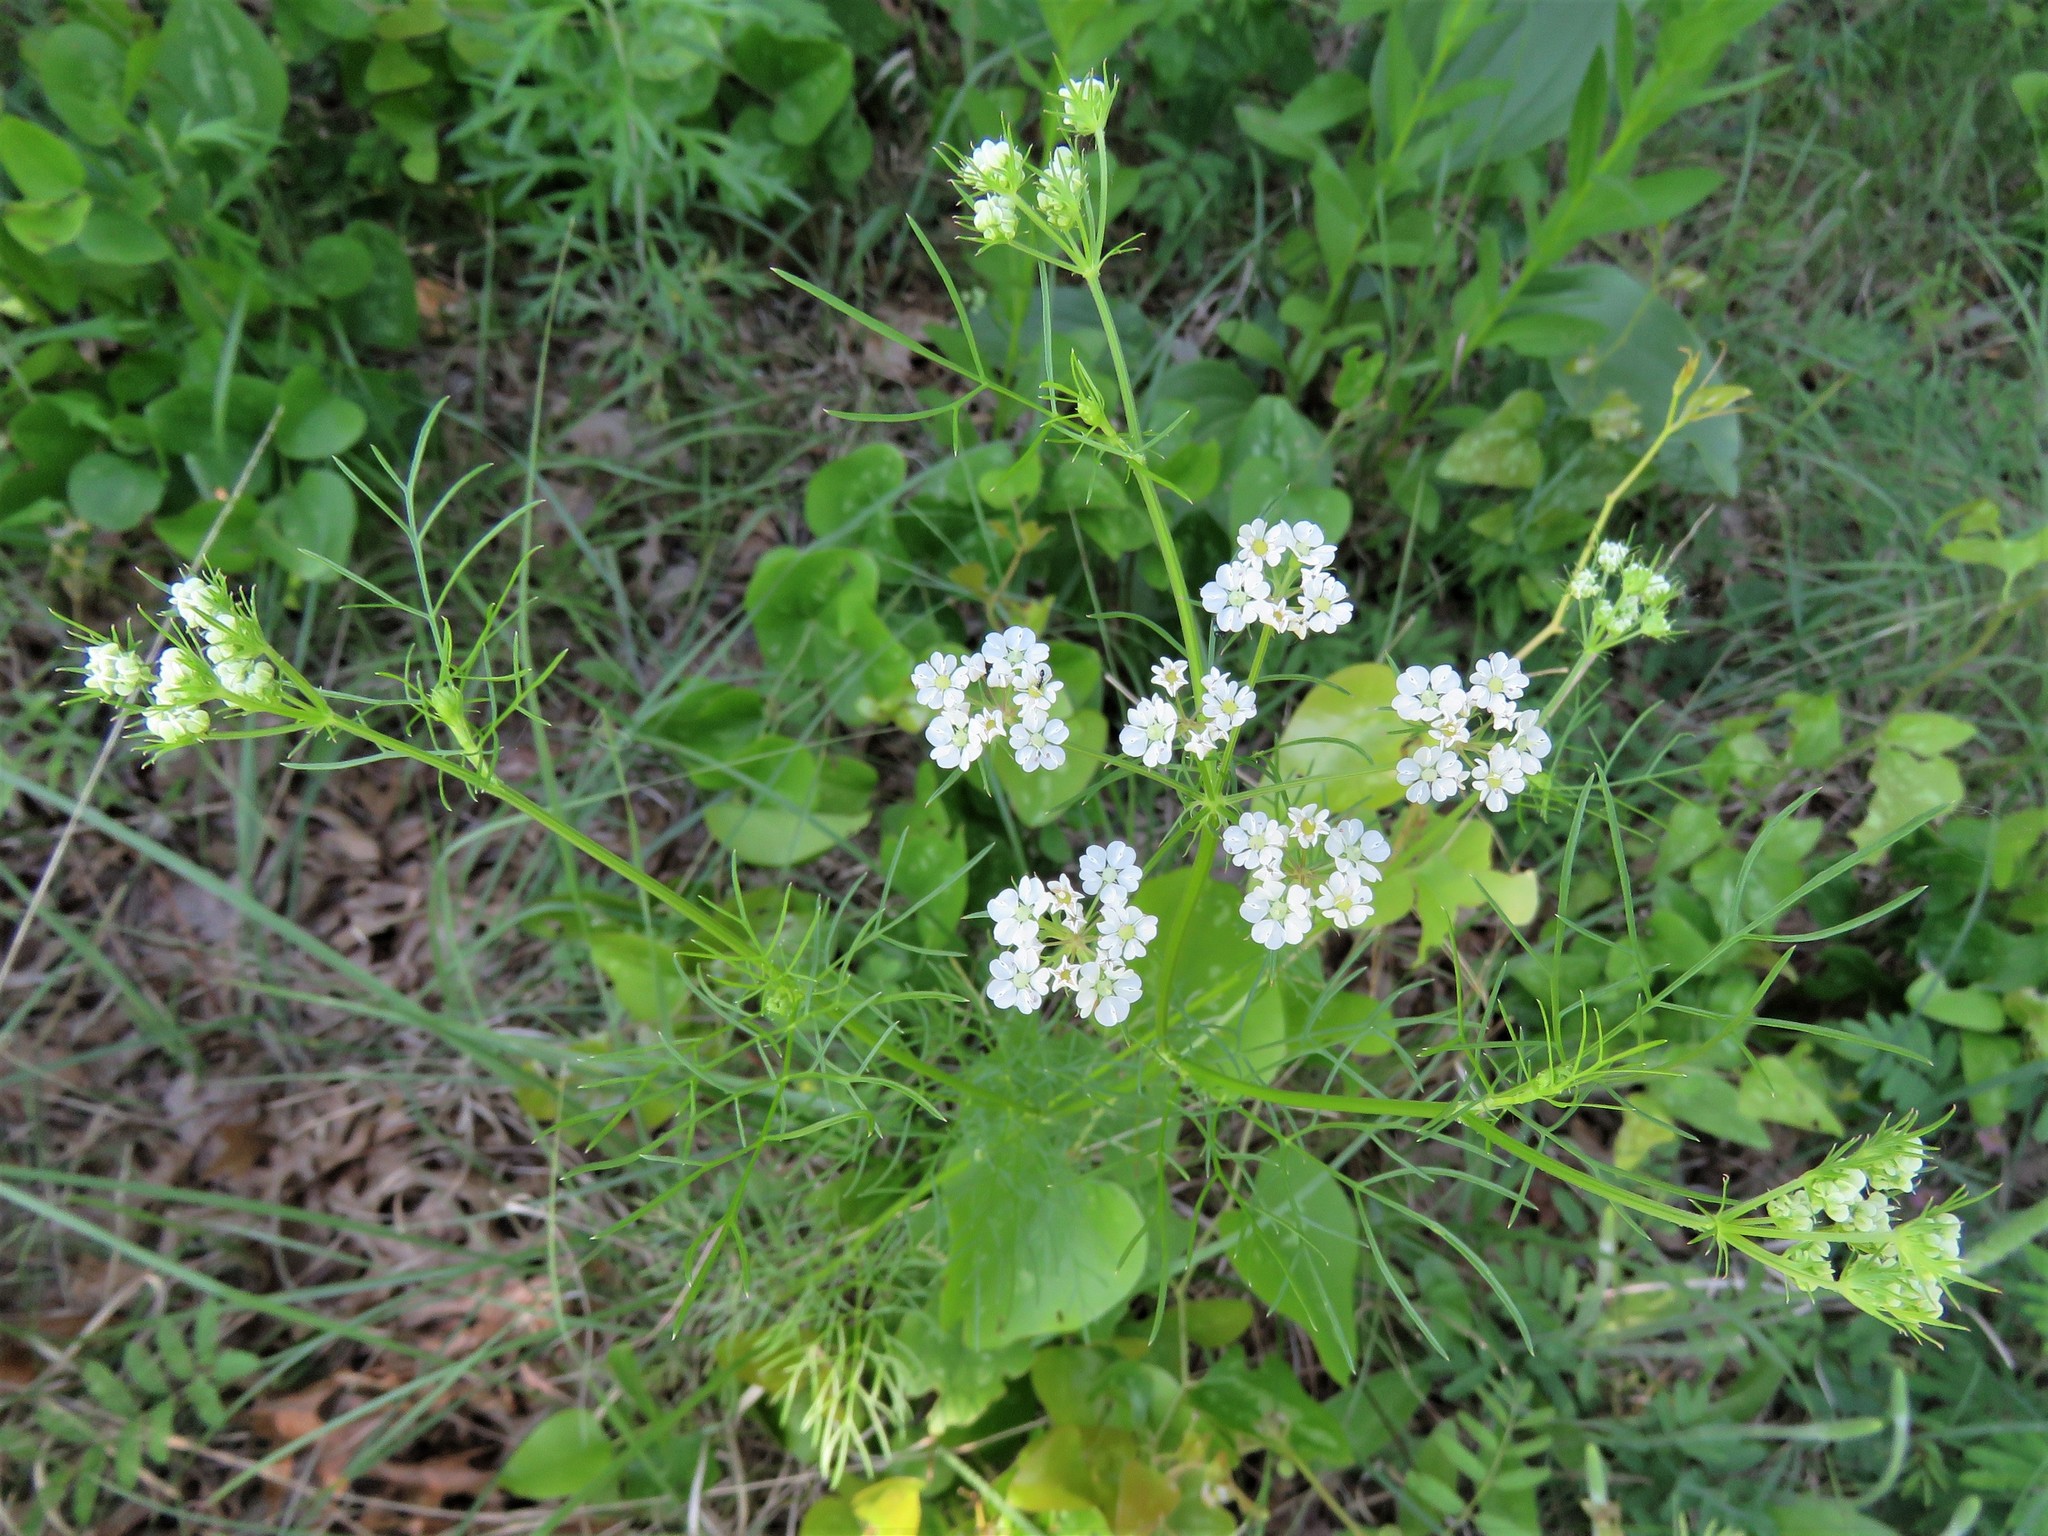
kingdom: Plantae
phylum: Tracheophyta
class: Magnoliopsida
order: Apiales
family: Apiaceae
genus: Atrema
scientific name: Atrema americanum
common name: Prairie-bishop
